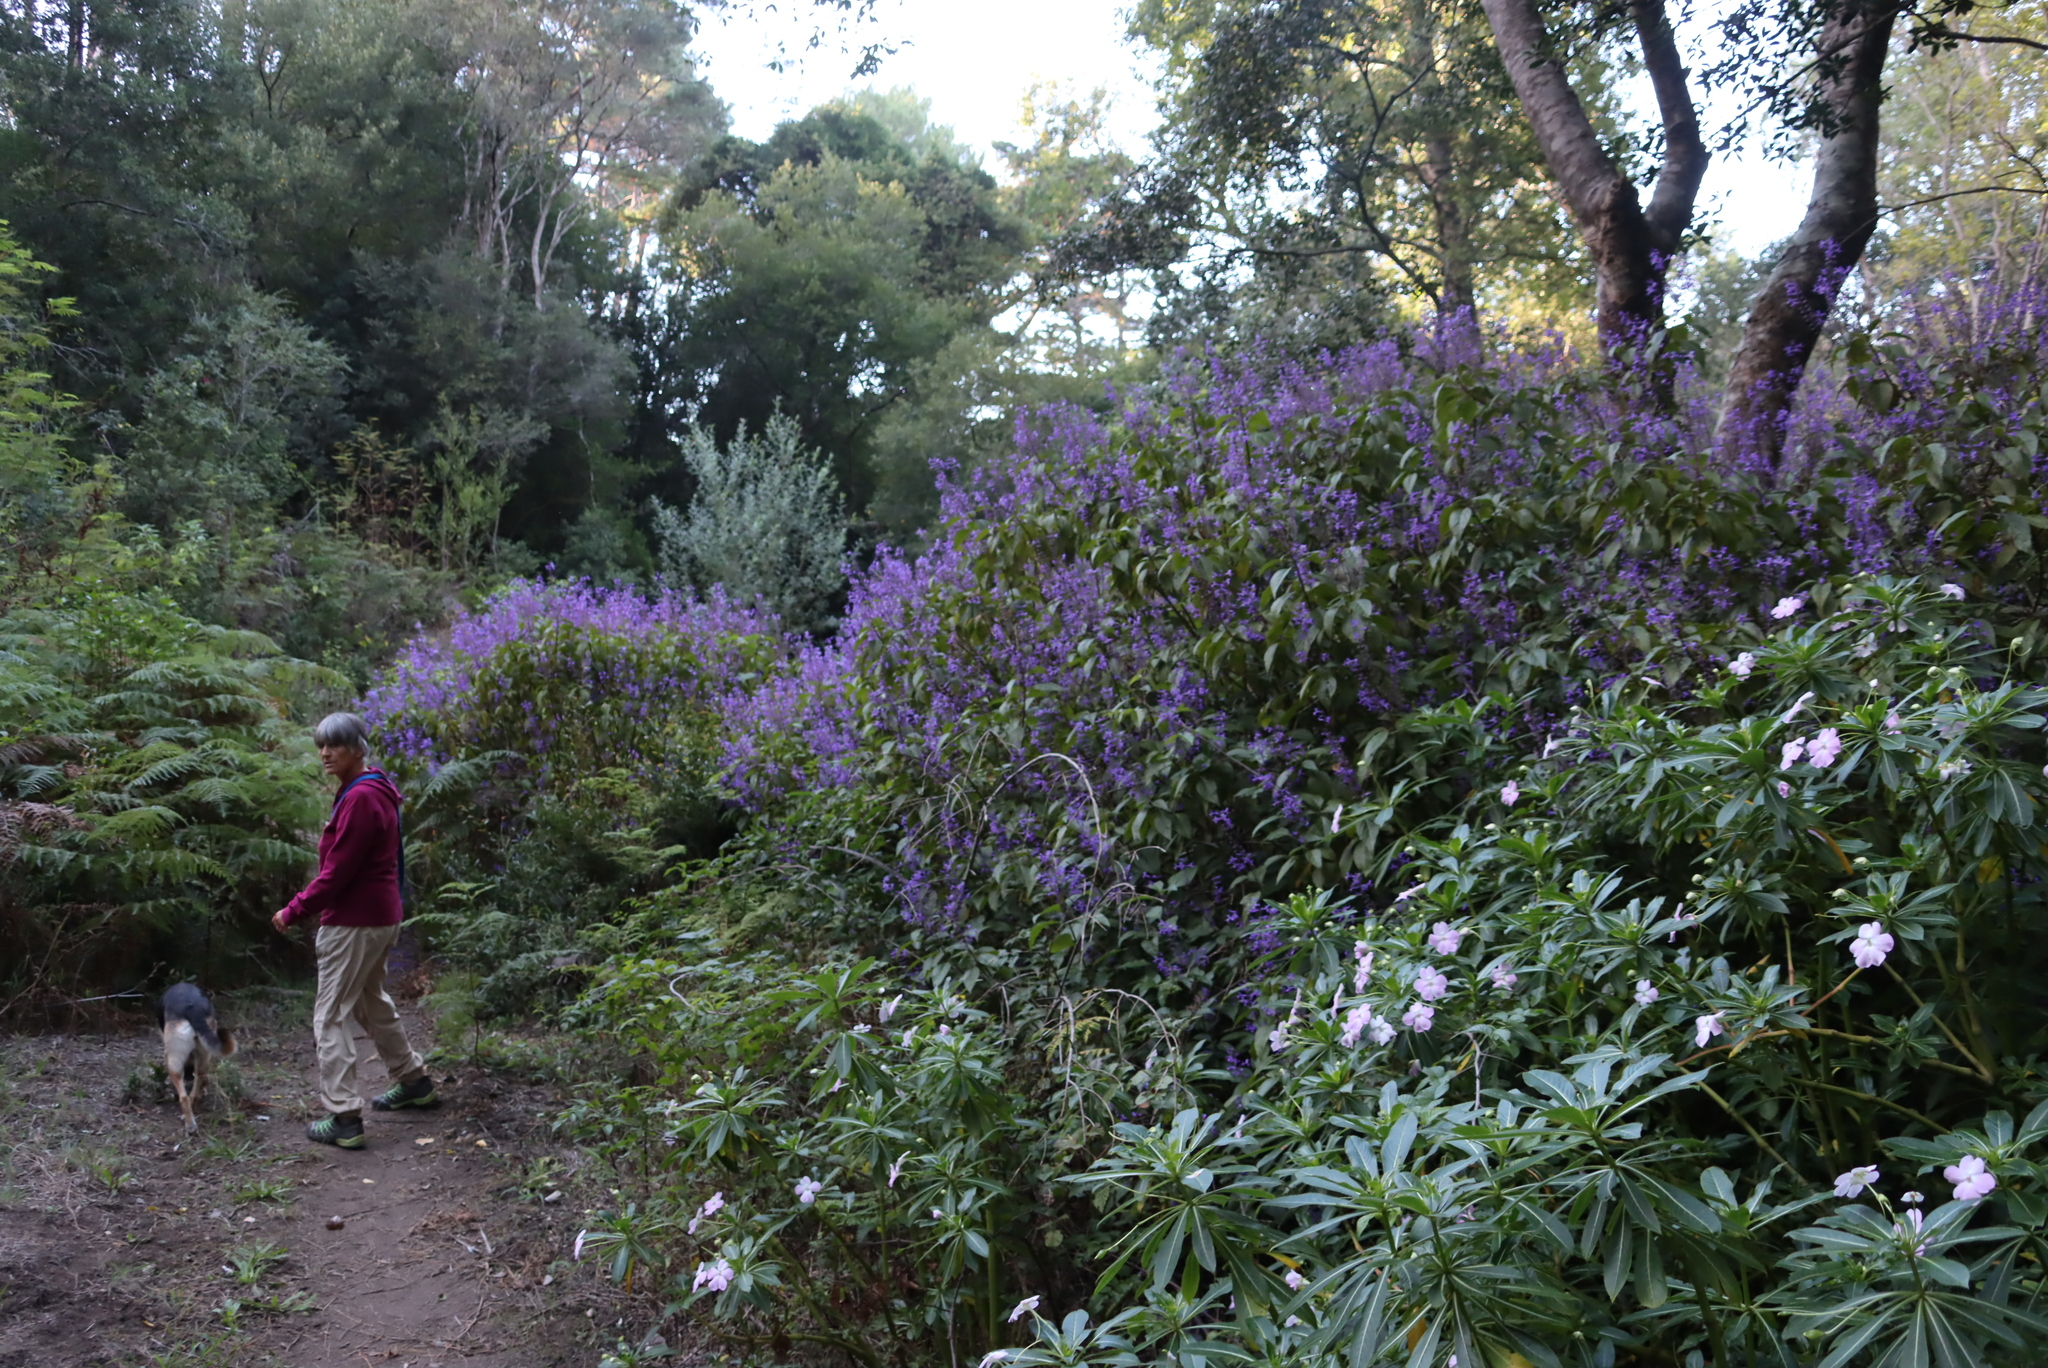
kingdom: Plantae
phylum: Tracheophyta
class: Magnoliopsida
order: Lamiales
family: Lamiaceae
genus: Plectranthus
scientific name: Plectranthus ecklonii
